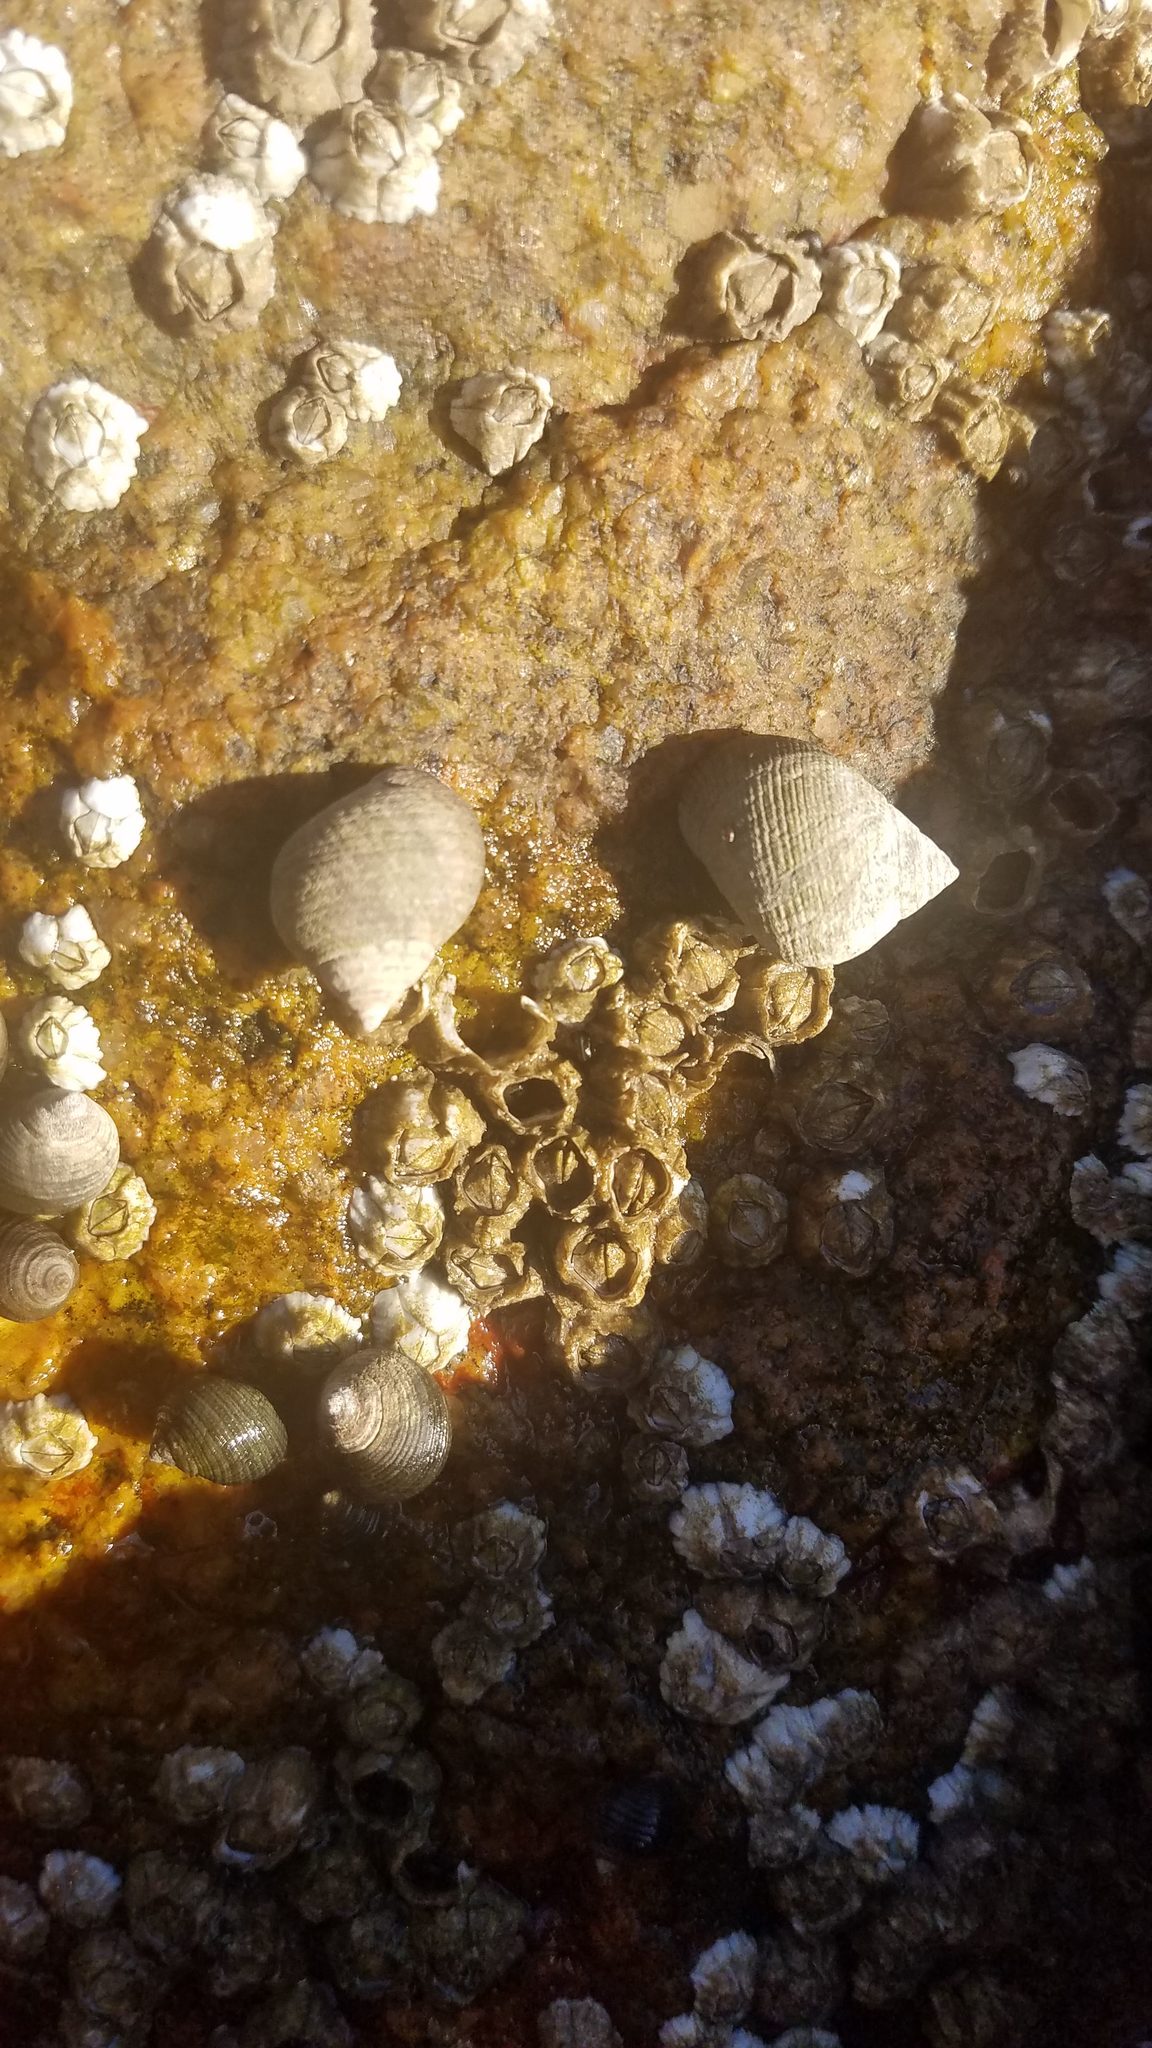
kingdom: Animalia
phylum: Mollusca
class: Gastropoda
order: Littorinimorpha
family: Littorinidae
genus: Littorina
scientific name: Littorina littorea
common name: Common periwinkle
